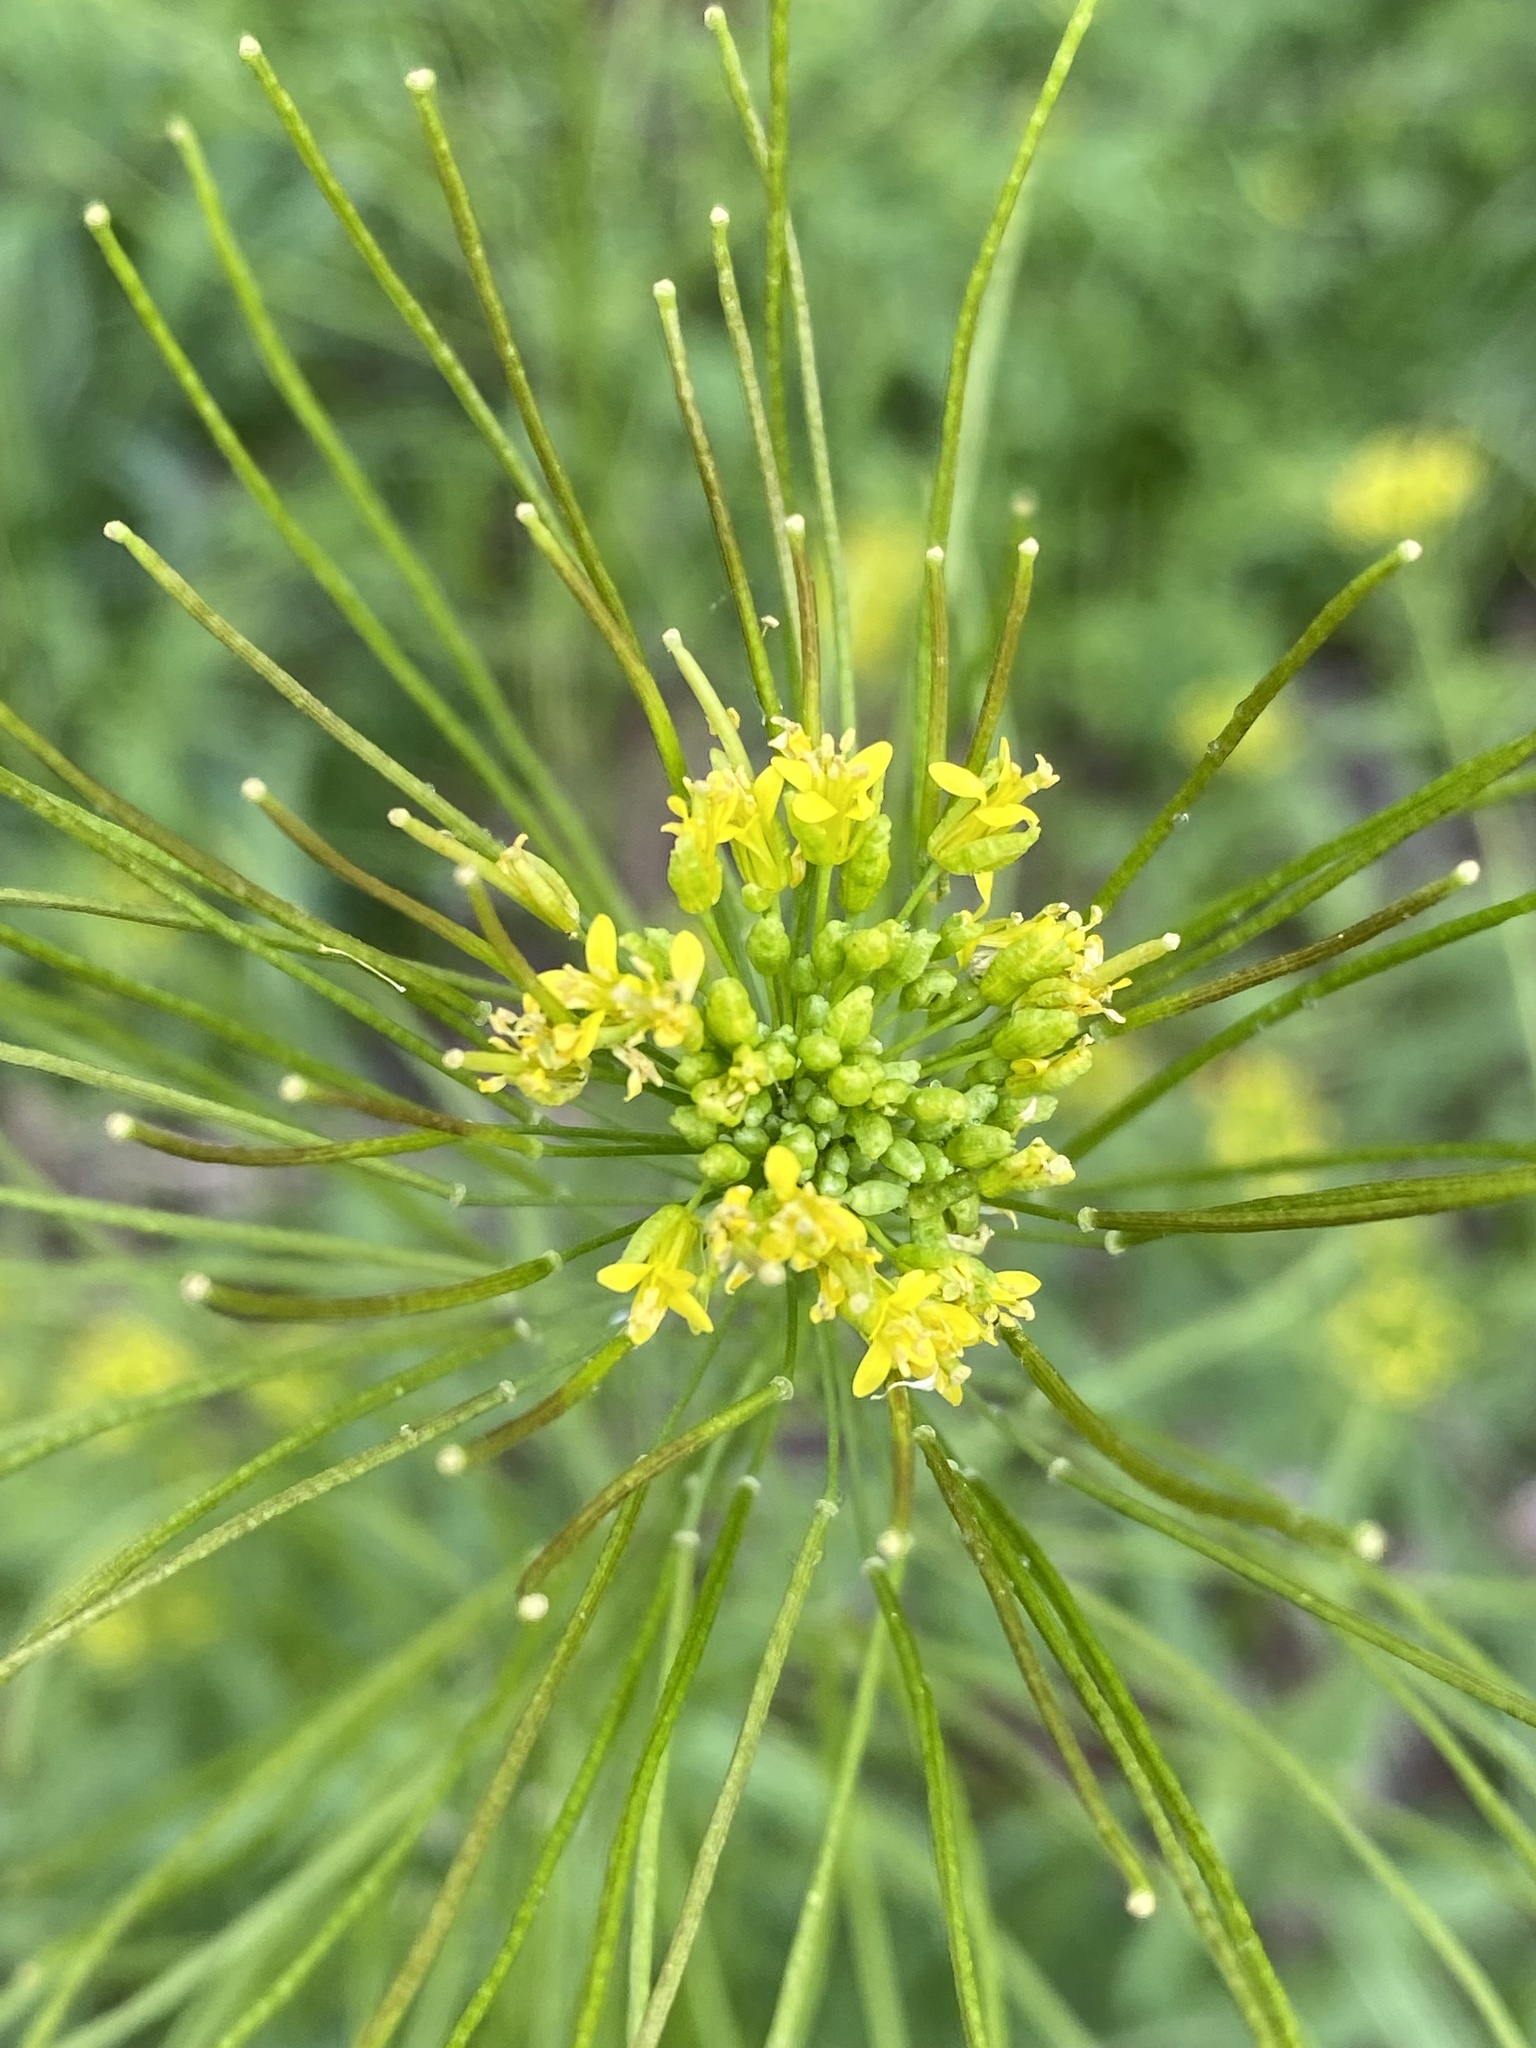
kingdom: Plantae
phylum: Tracheophyta
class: Magnoliopsida
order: Brassicales
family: Brassicaceae
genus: Sisymbrium
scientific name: Sisymbrium irio
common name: London rocket
